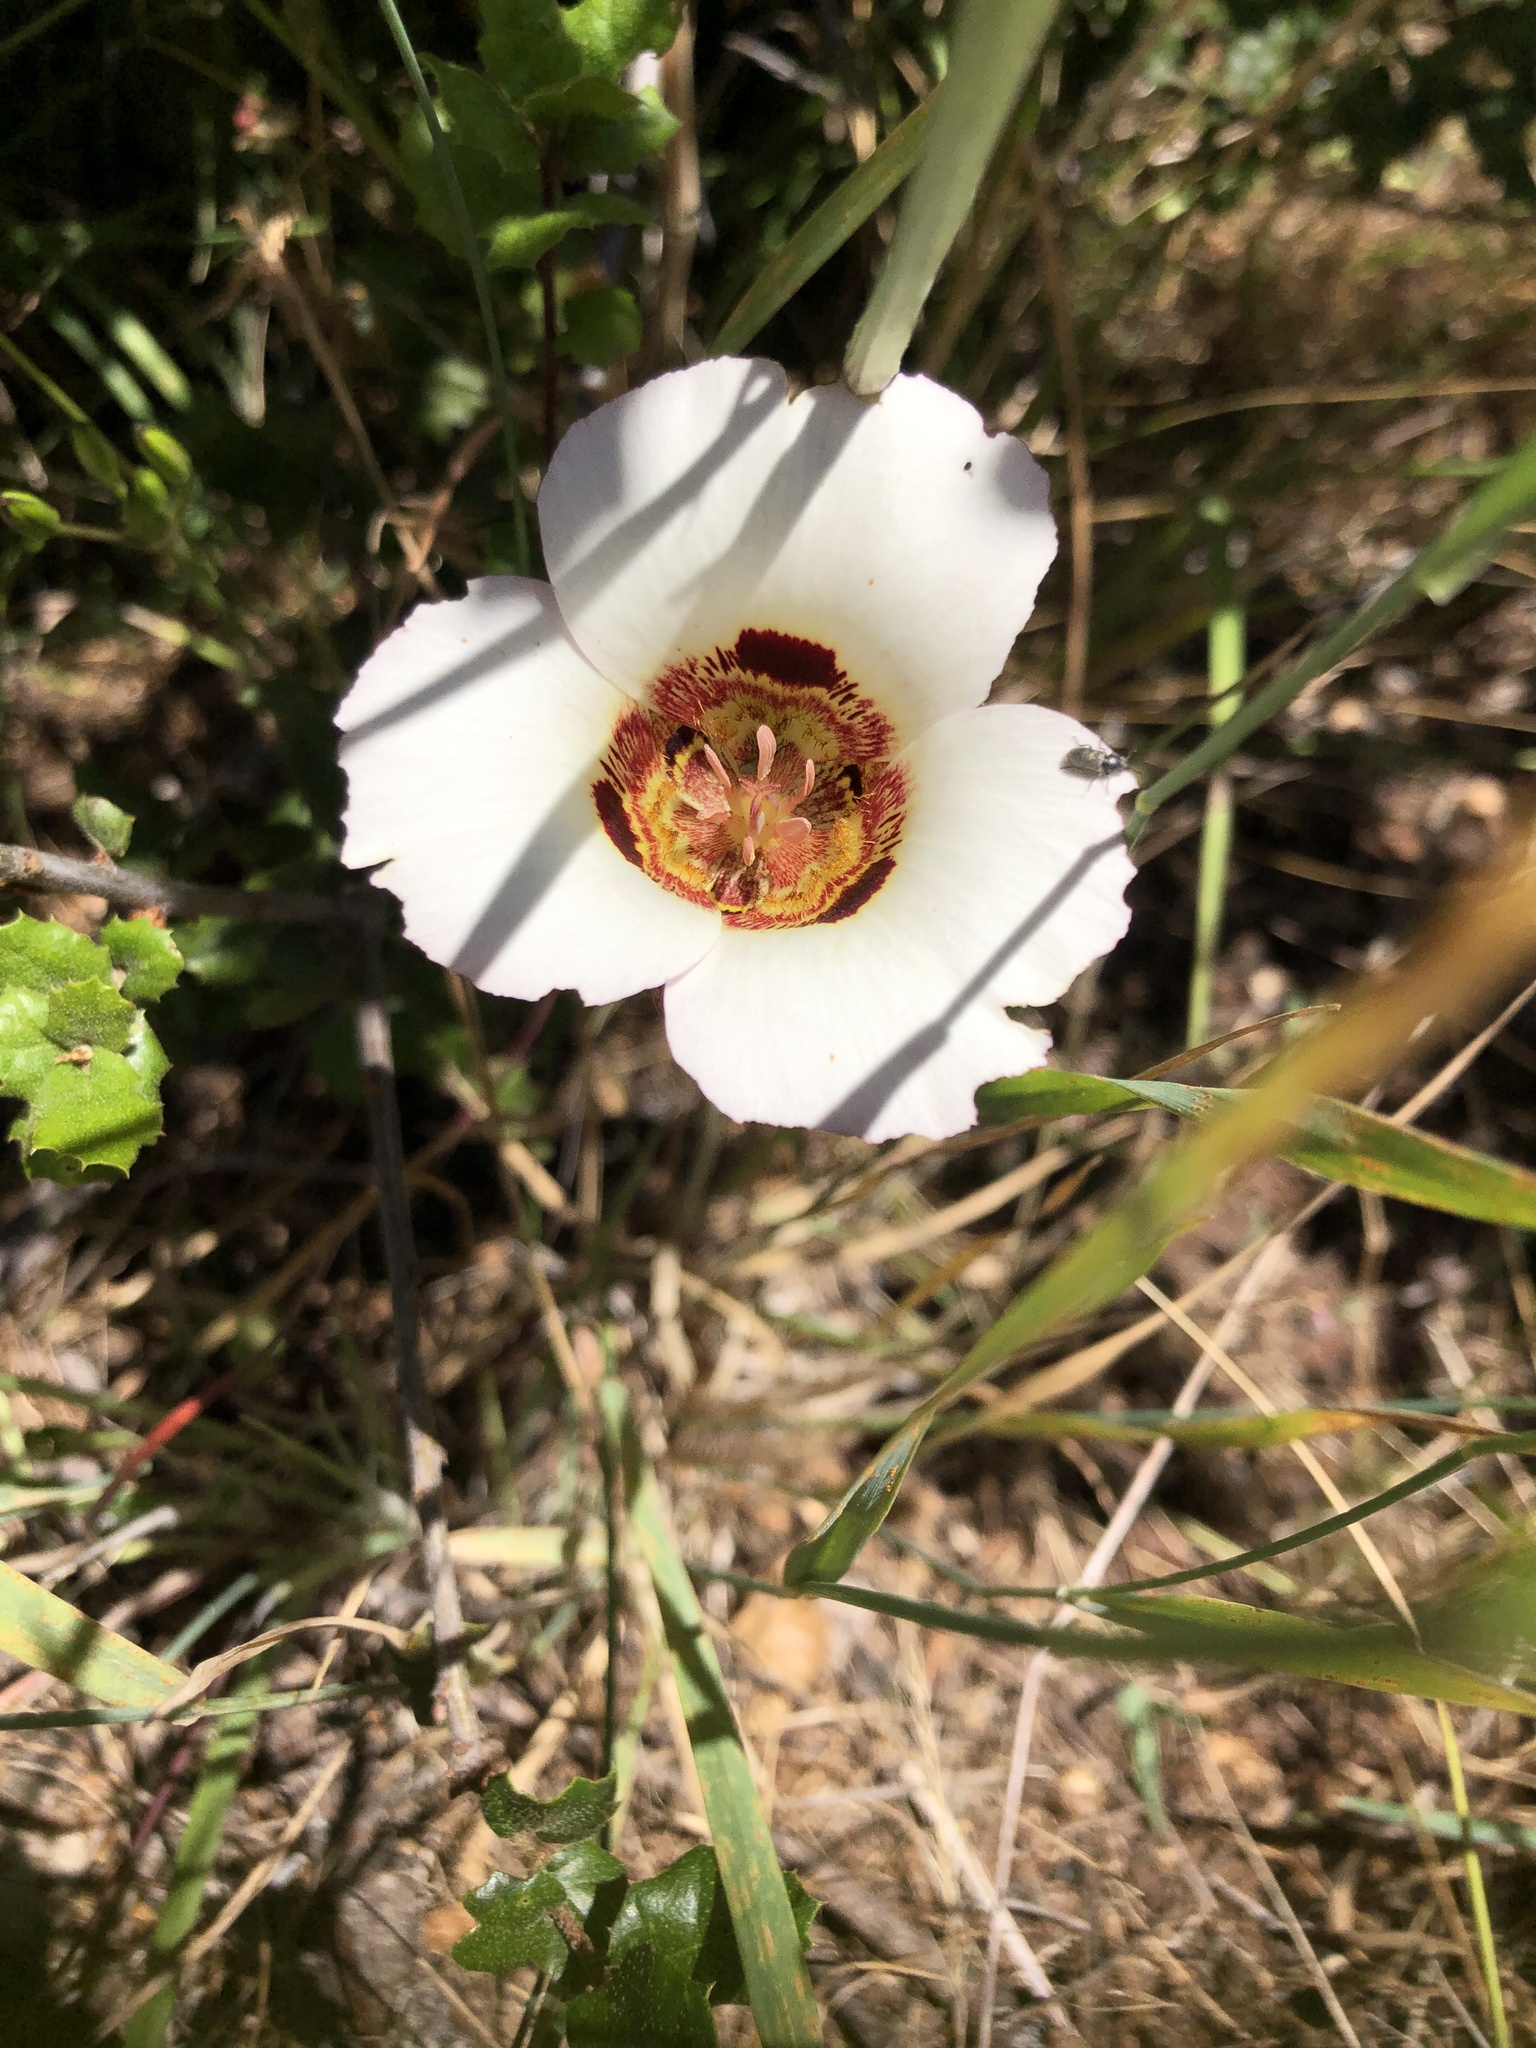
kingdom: Plantae
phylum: Tracheophyta
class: Liliopsida
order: Liliales
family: Liliaceae
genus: Calochortus
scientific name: Calochortus vestae
